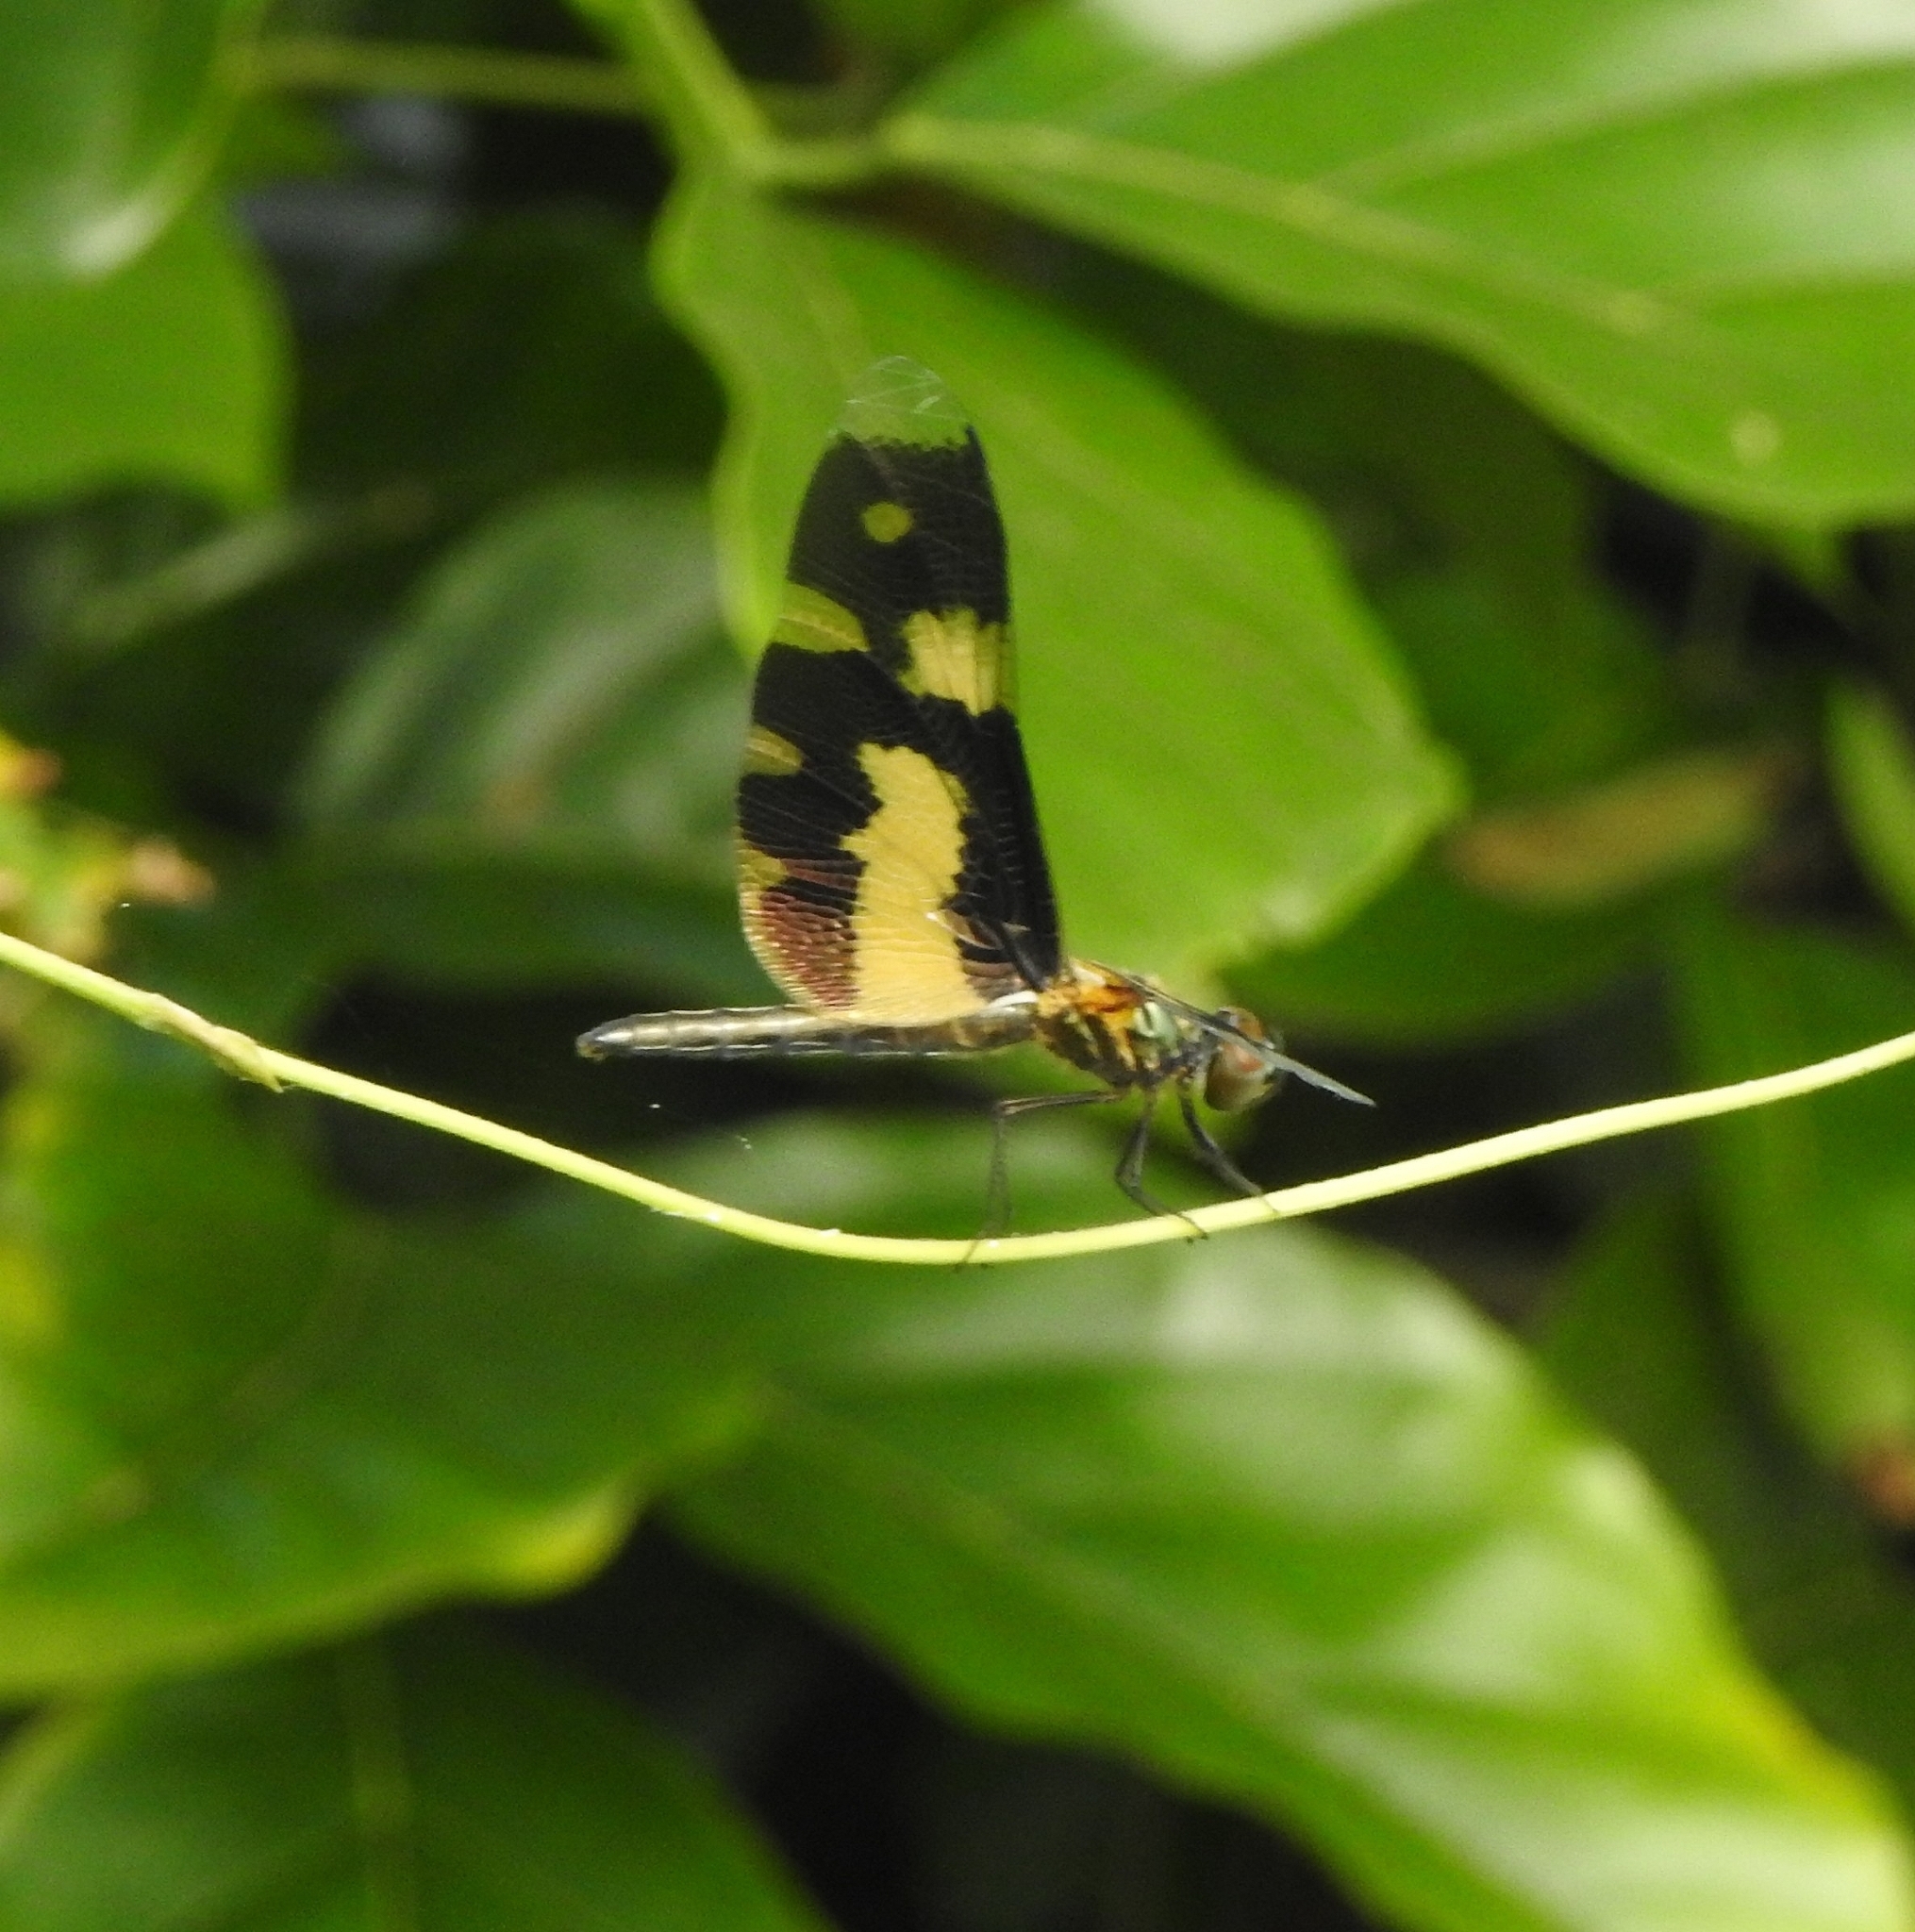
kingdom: Animalia
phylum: Arthropoda
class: Insecta
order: Odonata
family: Libellulidae
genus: Rhyothemis
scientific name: Rhyothemis variegata
